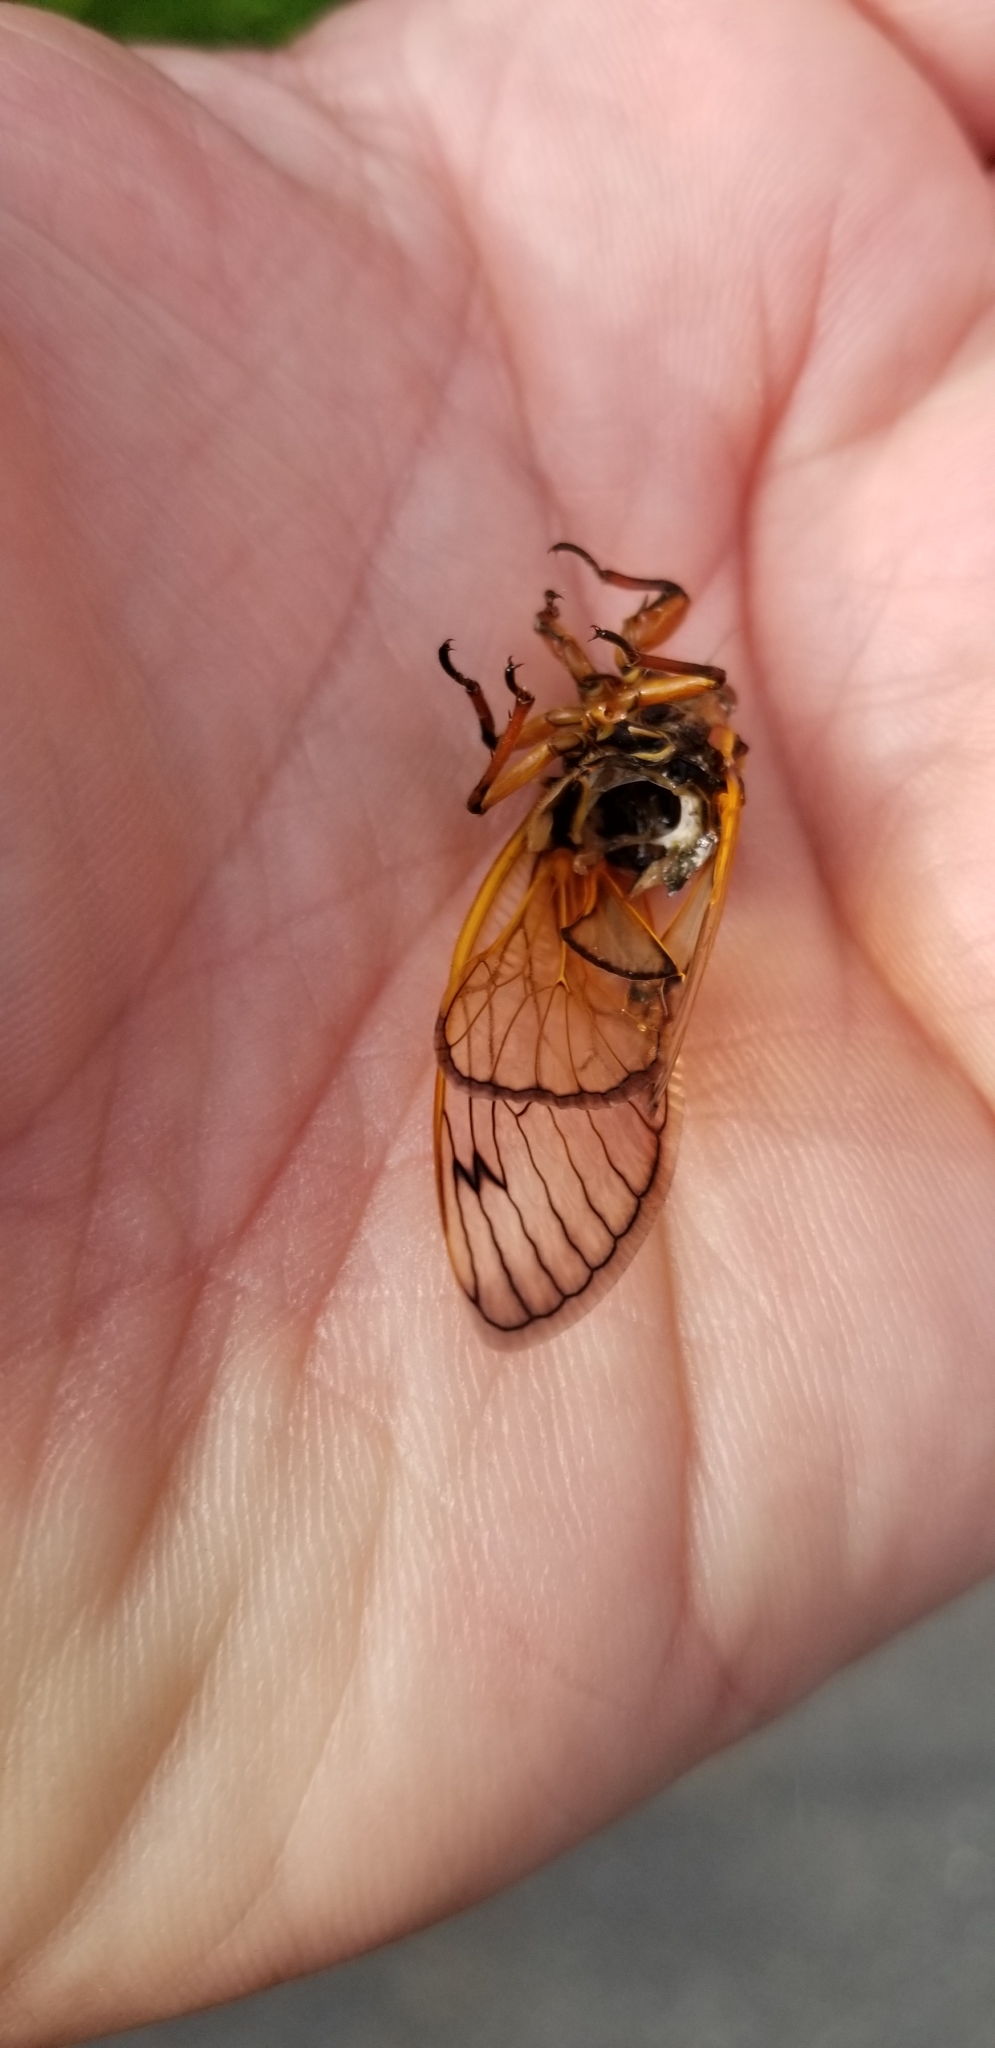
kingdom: Animalia
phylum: Arthropoda
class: Insecta
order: Hemiptera
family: Cicadidae
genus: Magicicada
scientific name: Magicicada
